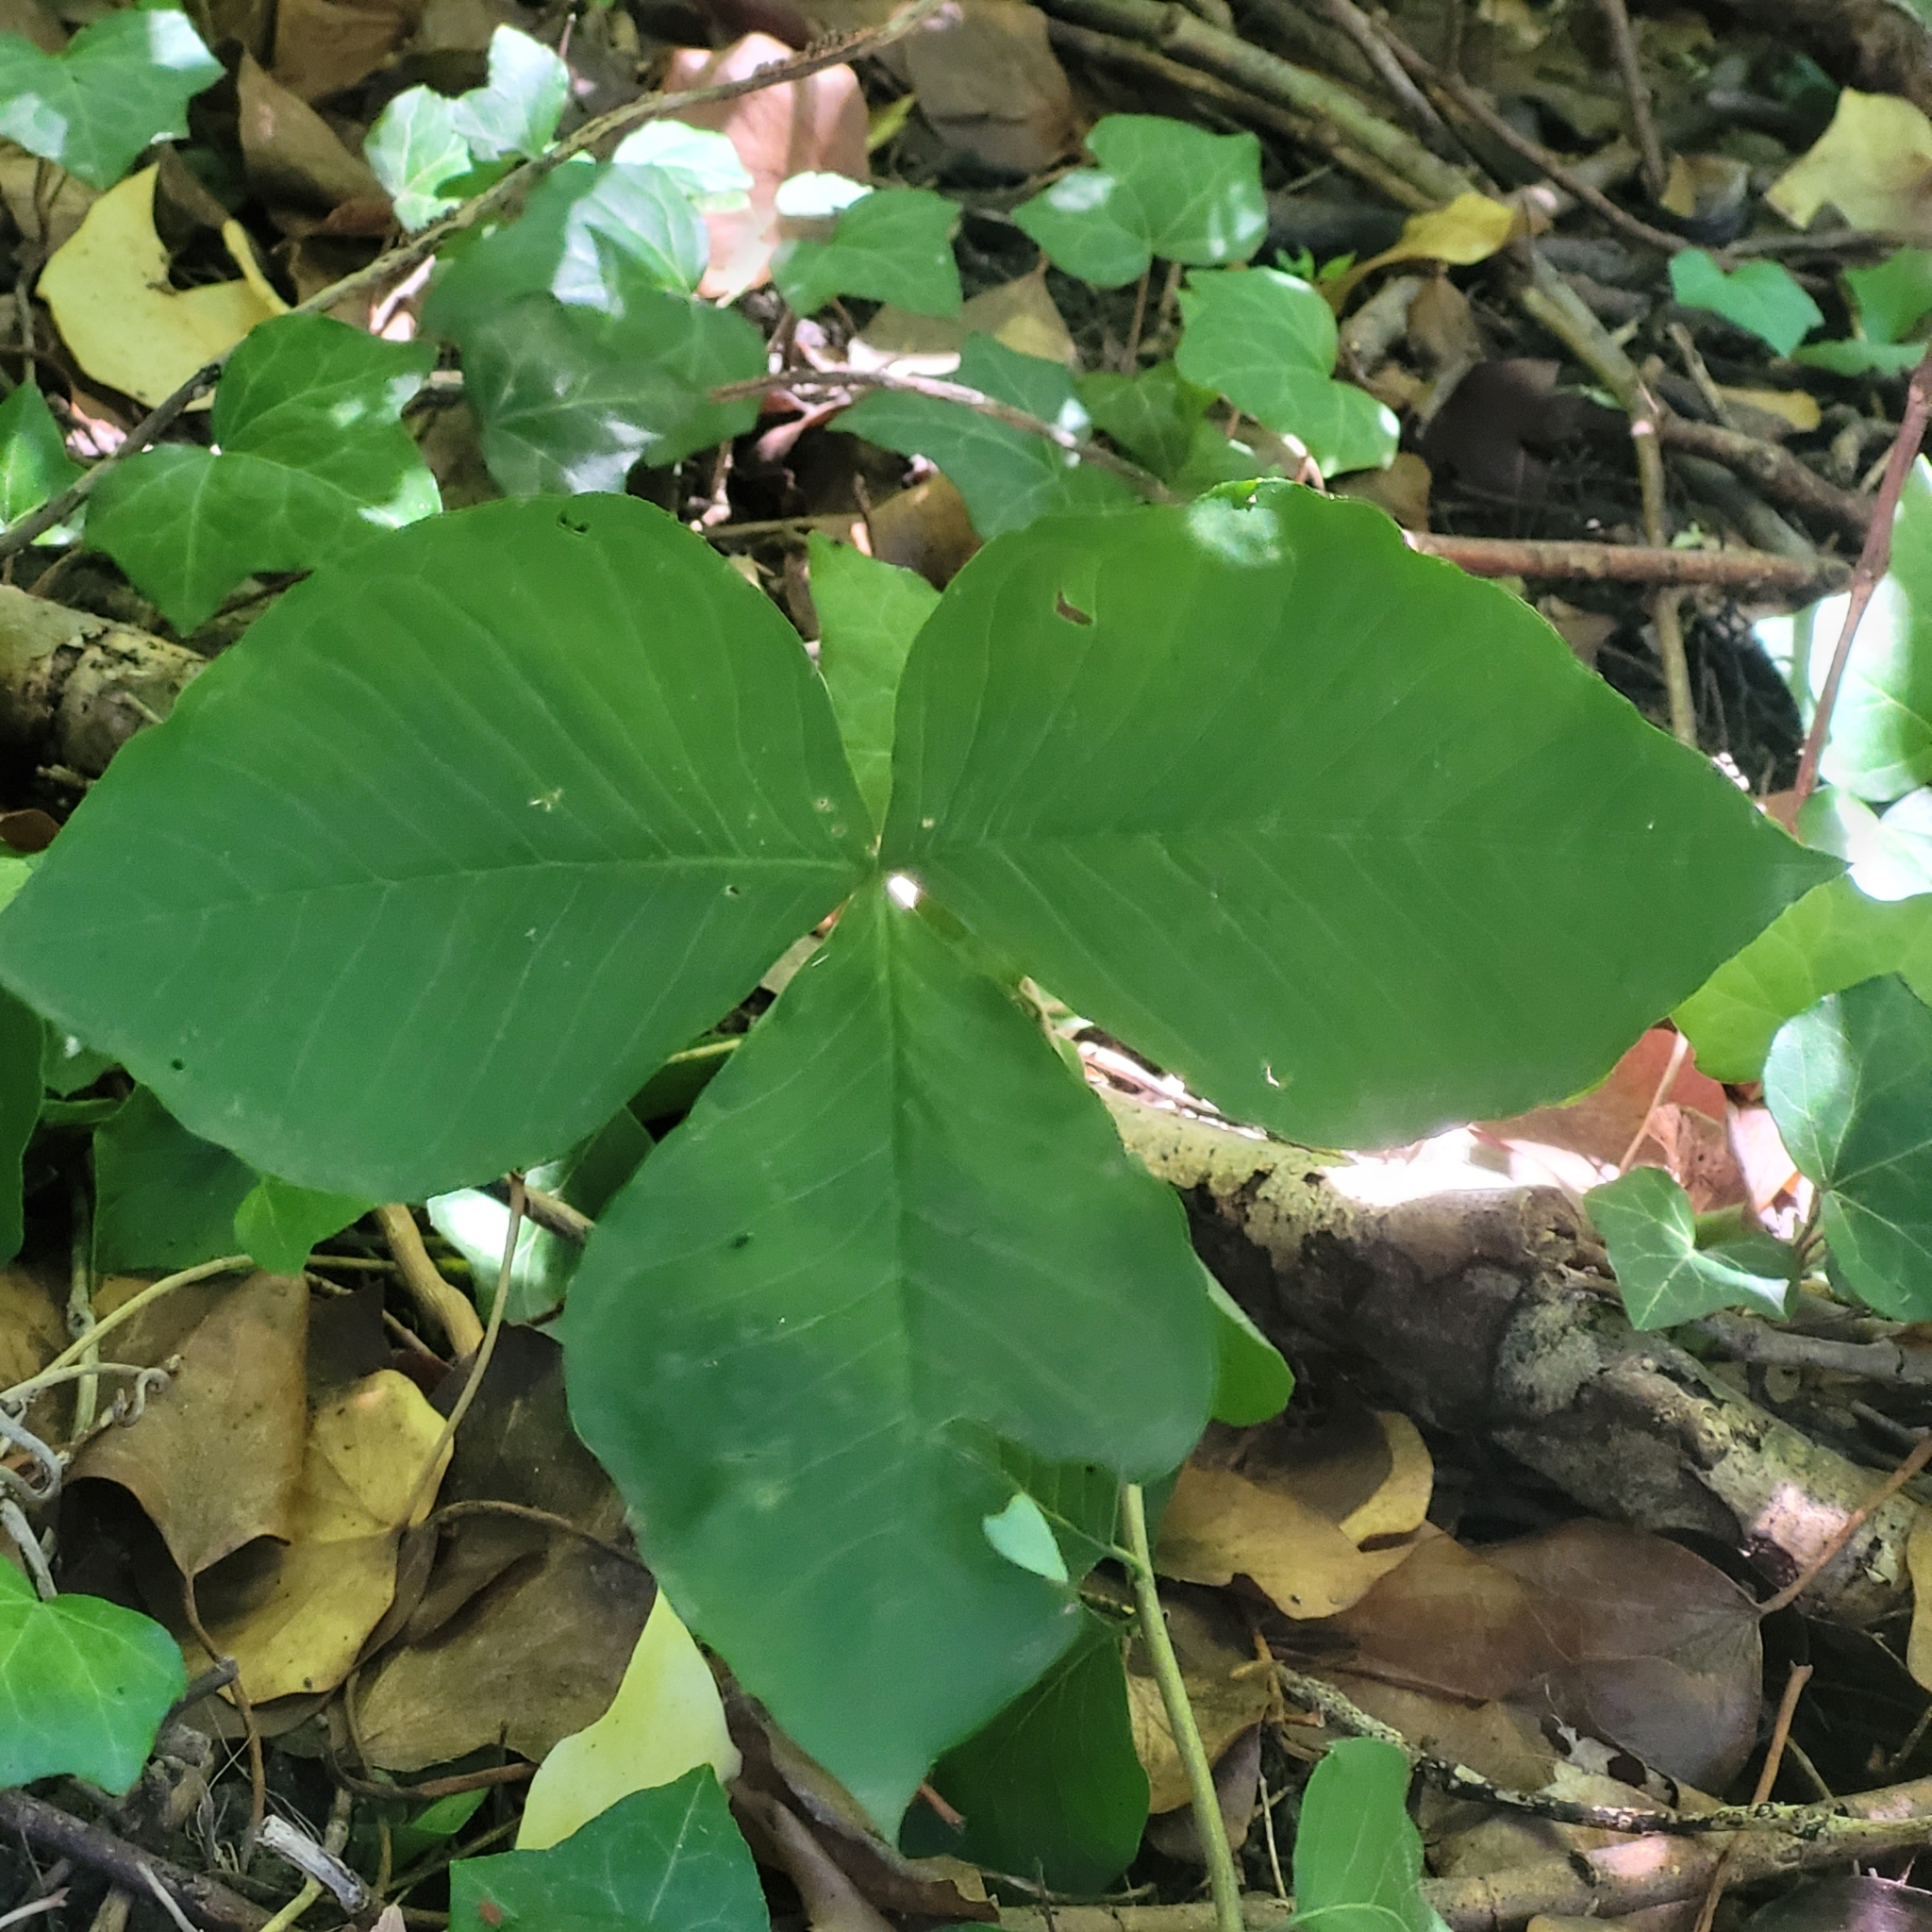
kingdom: Plantae
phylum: Tracheophyta
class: Liliopsida
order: Alismatales
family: Araceae
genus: Arisaema
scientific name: Arisaema triphyllum
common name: Jack-in-the-pulpit
